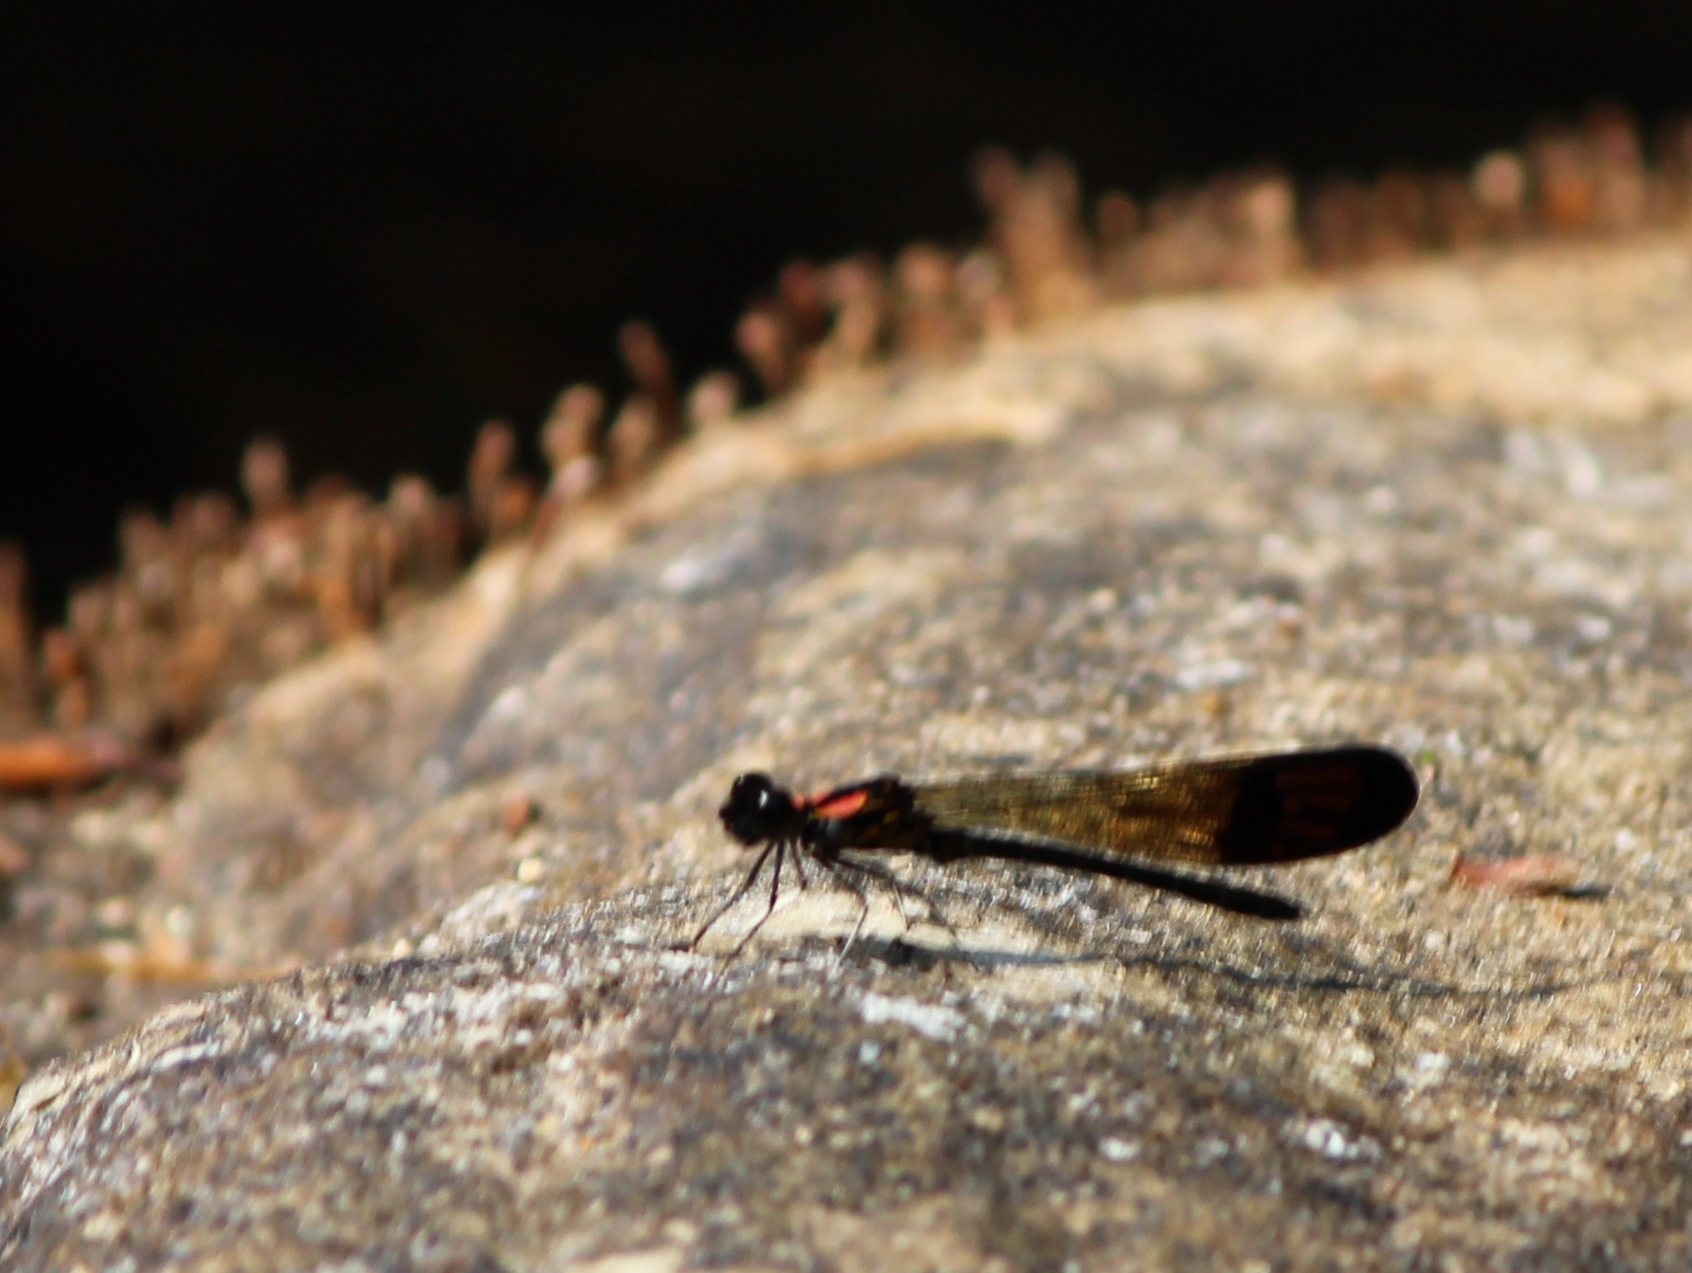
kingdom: Animalia
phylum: Arthropoda
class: Insecta
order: Odonata
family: Chlorocyphidae
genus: Heliocypha
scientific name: Heliocypha bisignata
